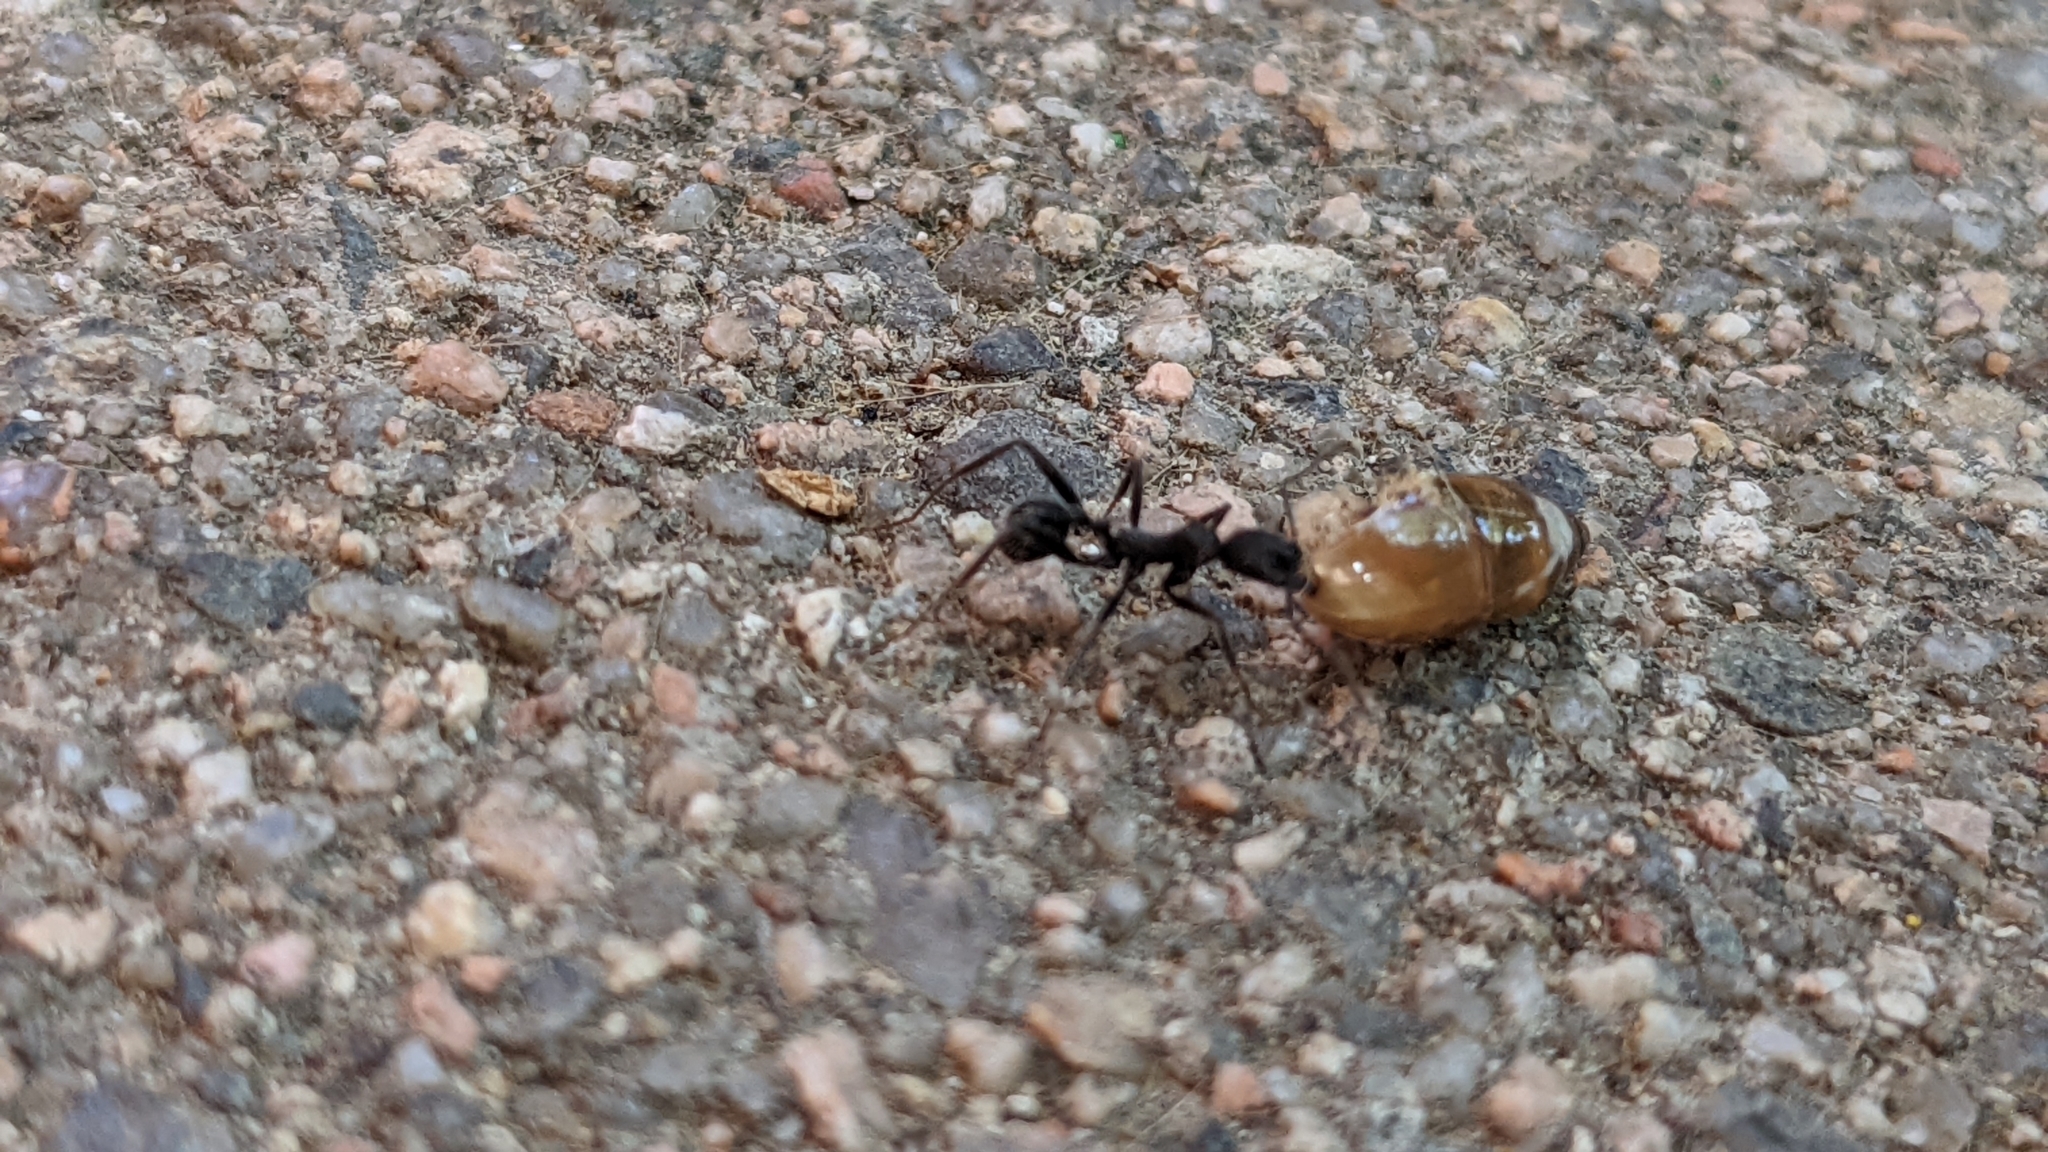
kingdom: Animalia
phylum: Arthropoda
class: Insecta
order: Hymenoptera
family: Formicidae
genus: Aphaenogaster
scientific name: Aphaenogaster senilis
